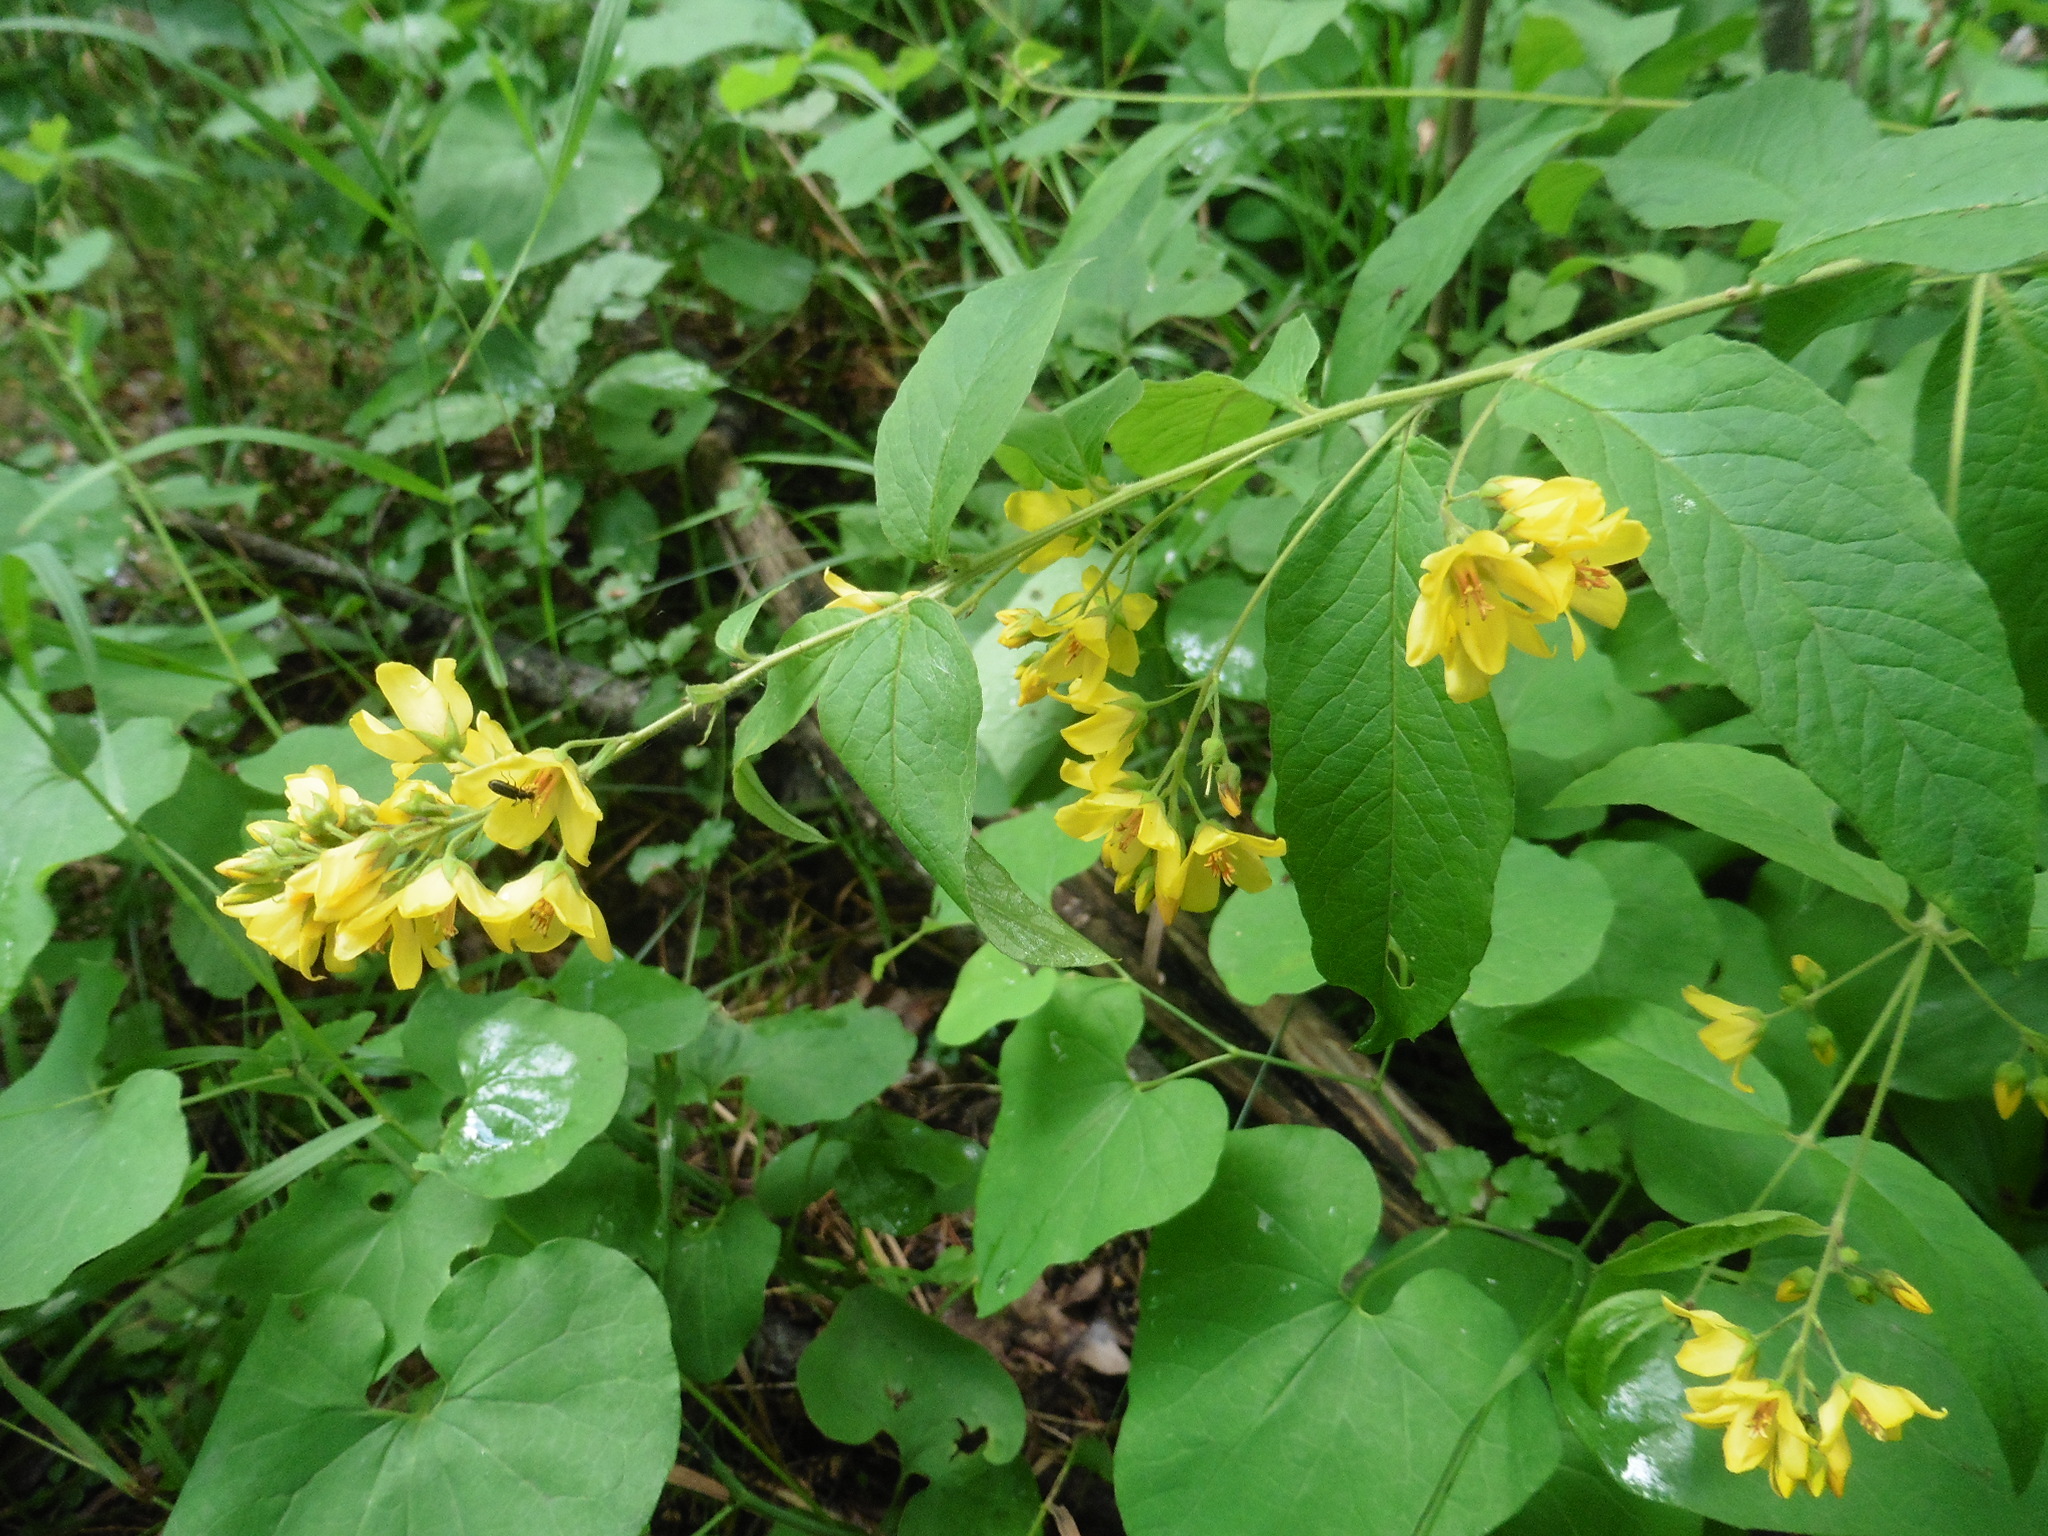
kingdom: Plantae
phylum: Tracheophyta
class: Magnoliopsida
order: Ericales
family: Primulaceae
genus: Lysimachia
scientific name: Lysimachia vulgaris
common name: Yellow loosestrife
